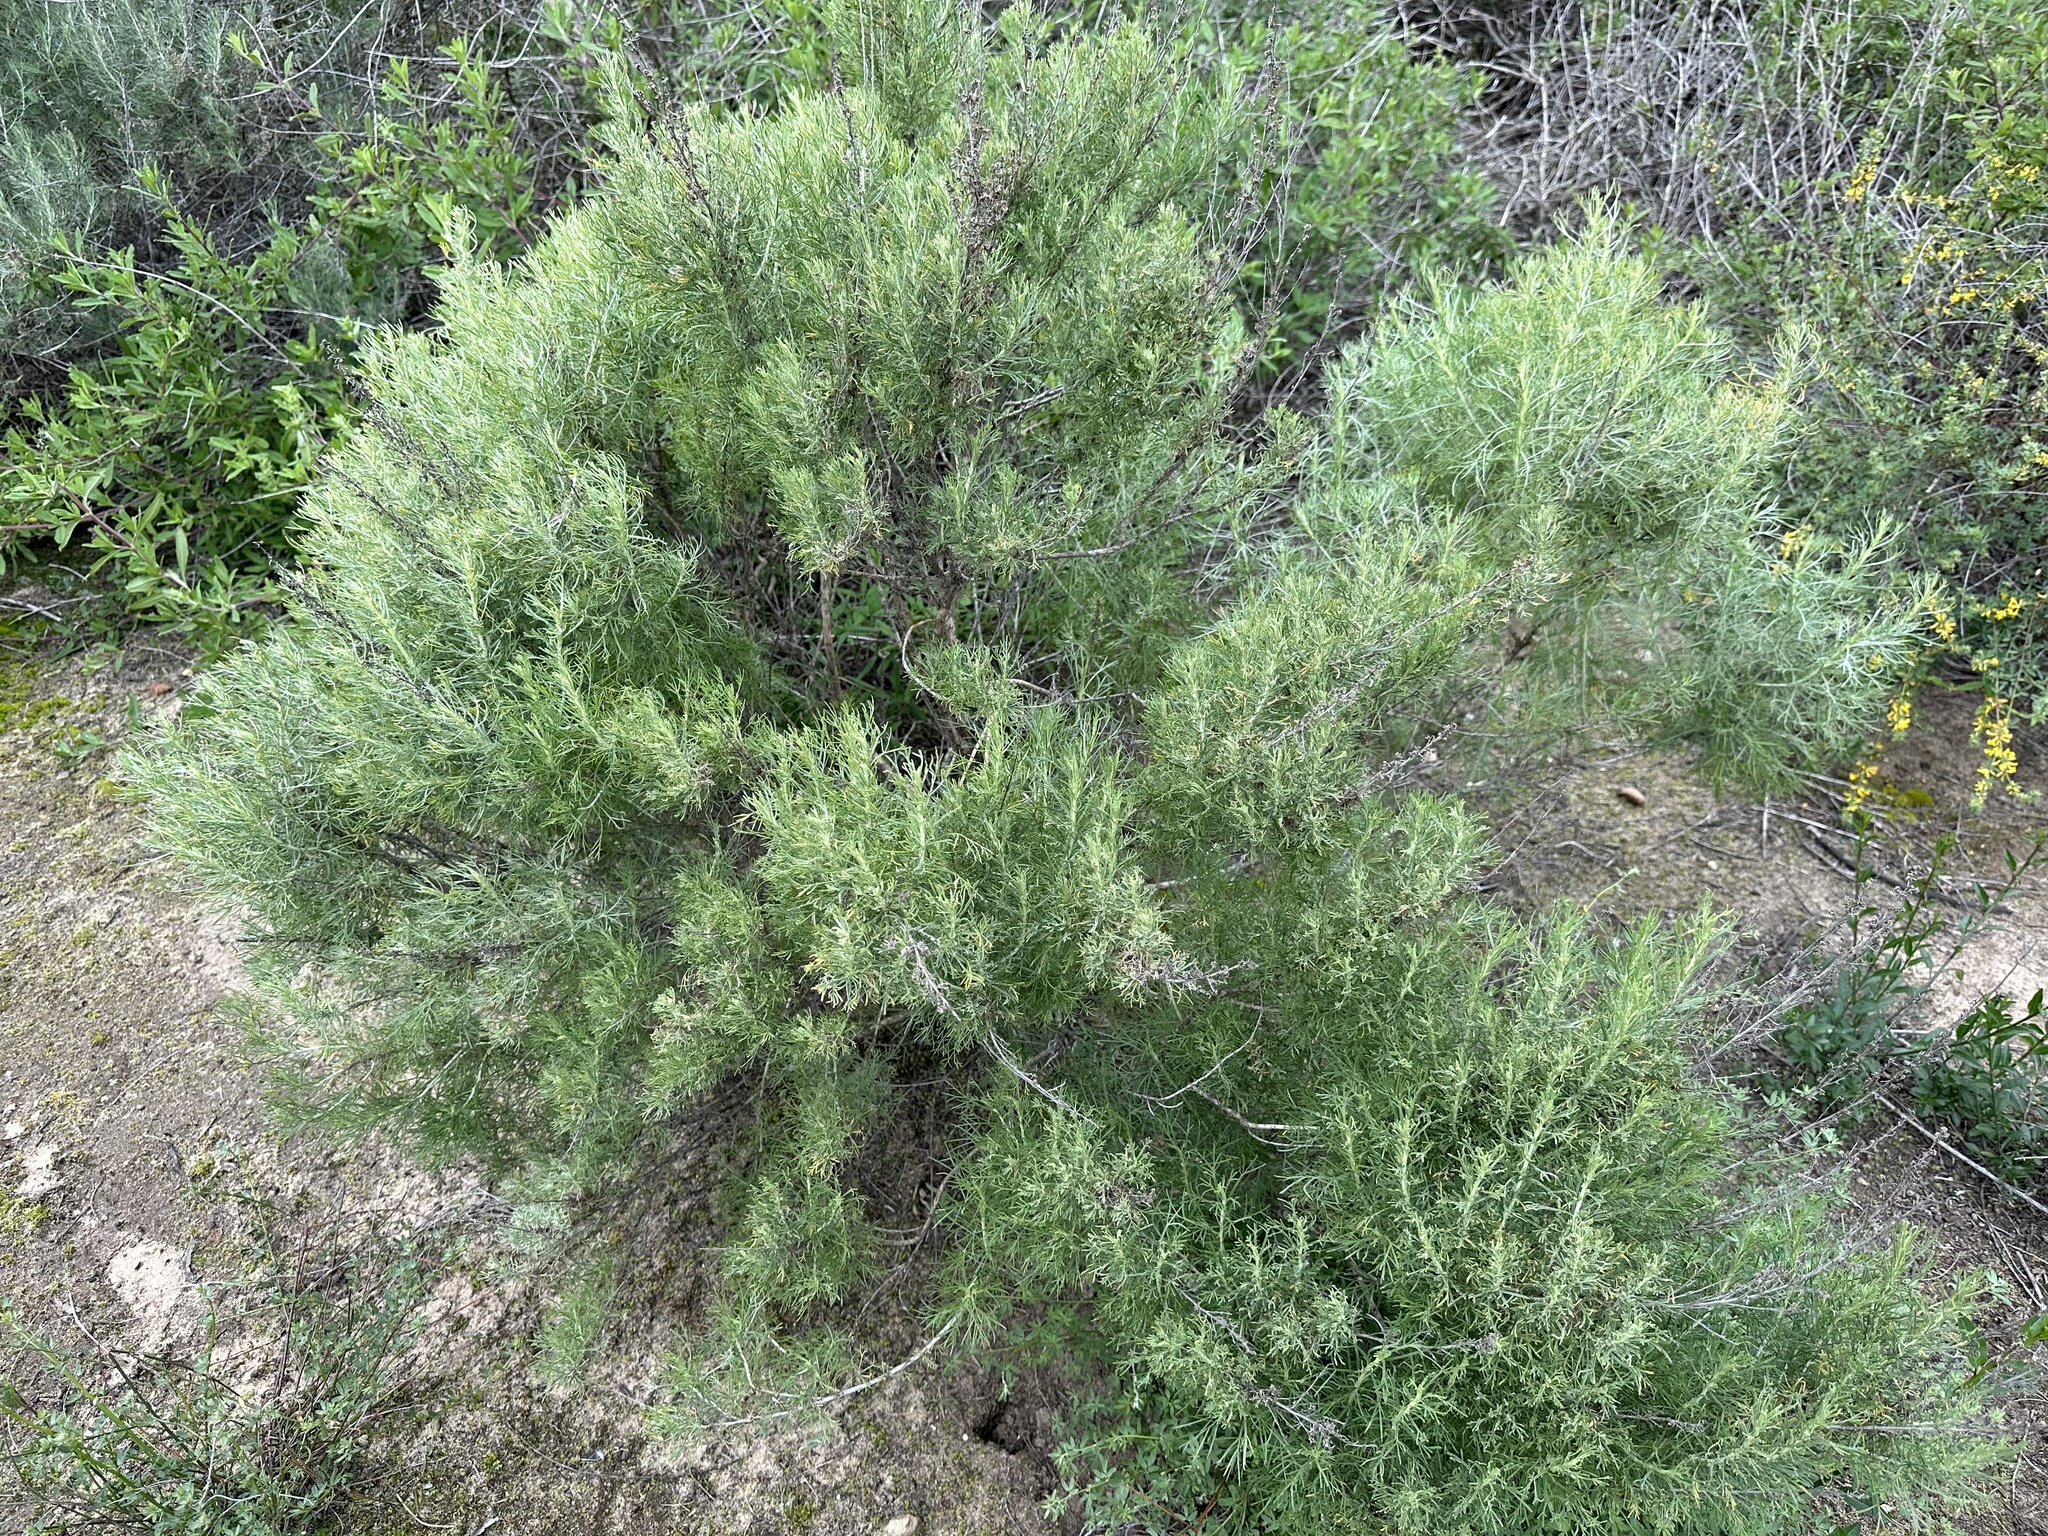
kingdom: Plantae
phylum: Tracheophyta
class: Magnoliopsida
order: Asterales
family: Asteraceae
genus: Artemisia
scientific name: Artemisia californica
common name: California sagebrush
